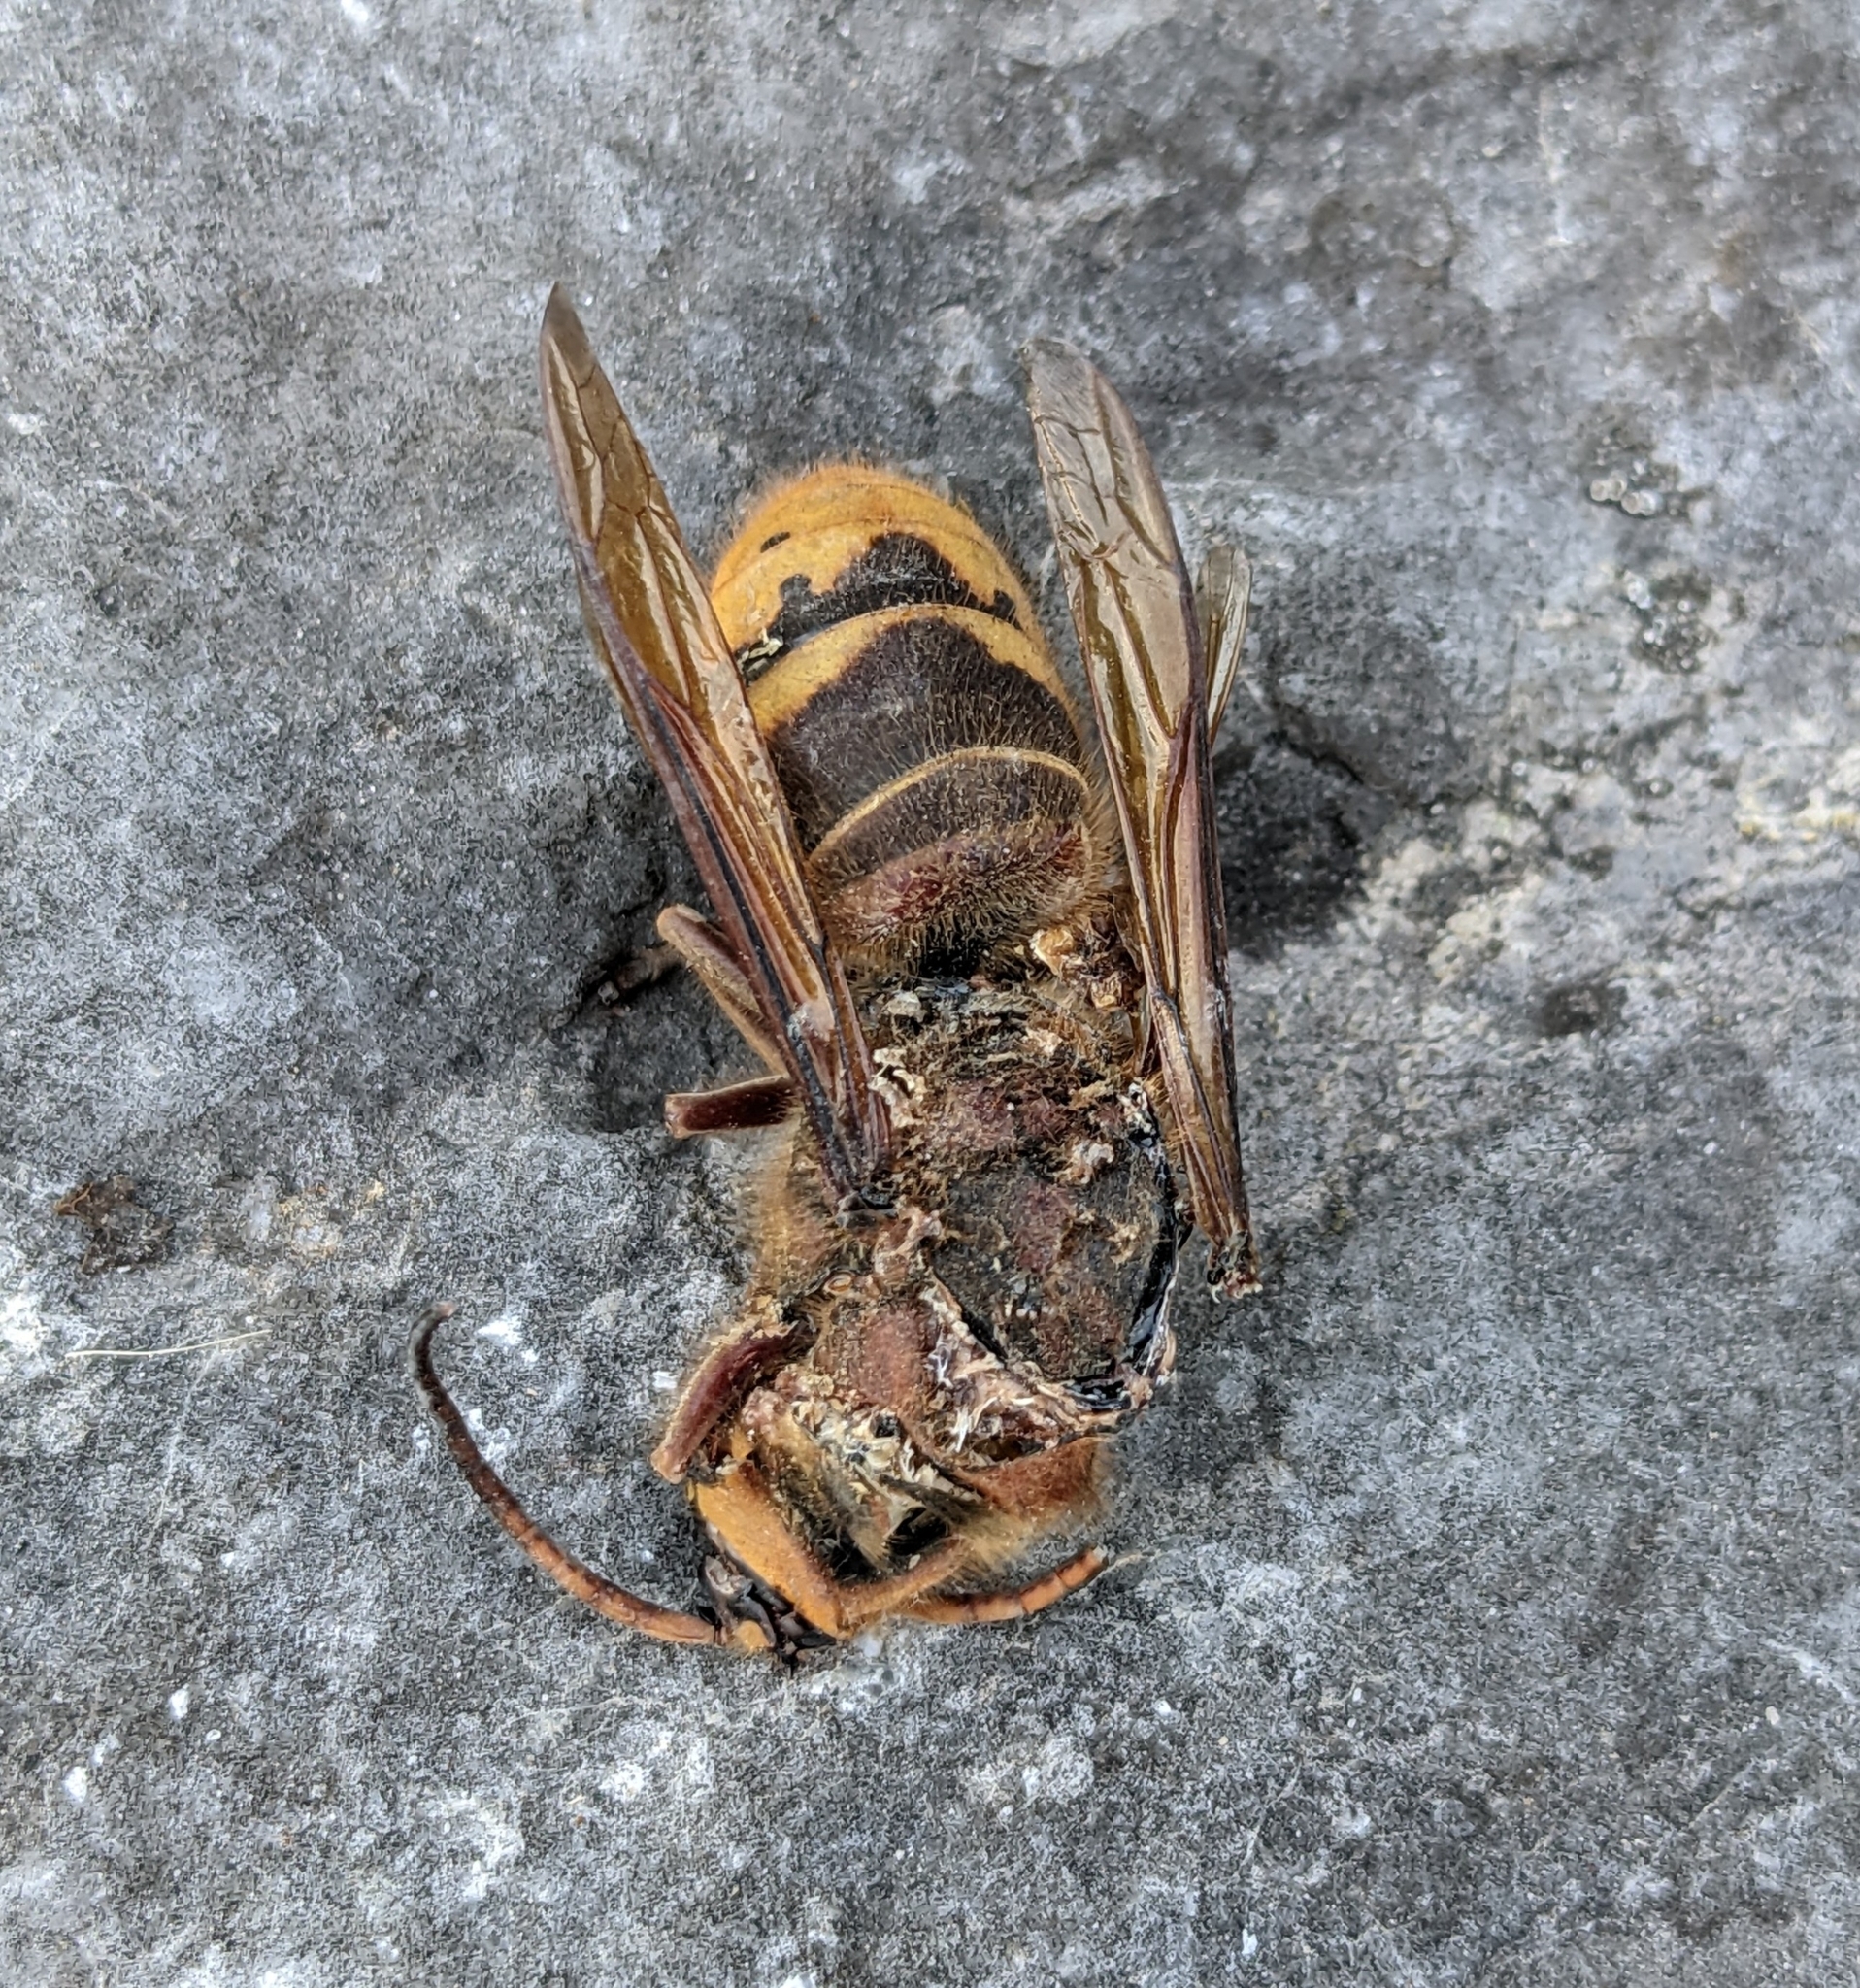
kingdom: Animalia
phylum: Arthropoda
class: Insecta
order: Hymenoptera
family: Vespidae
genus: Vespa
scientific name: Vespa crabro
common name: Hornet
